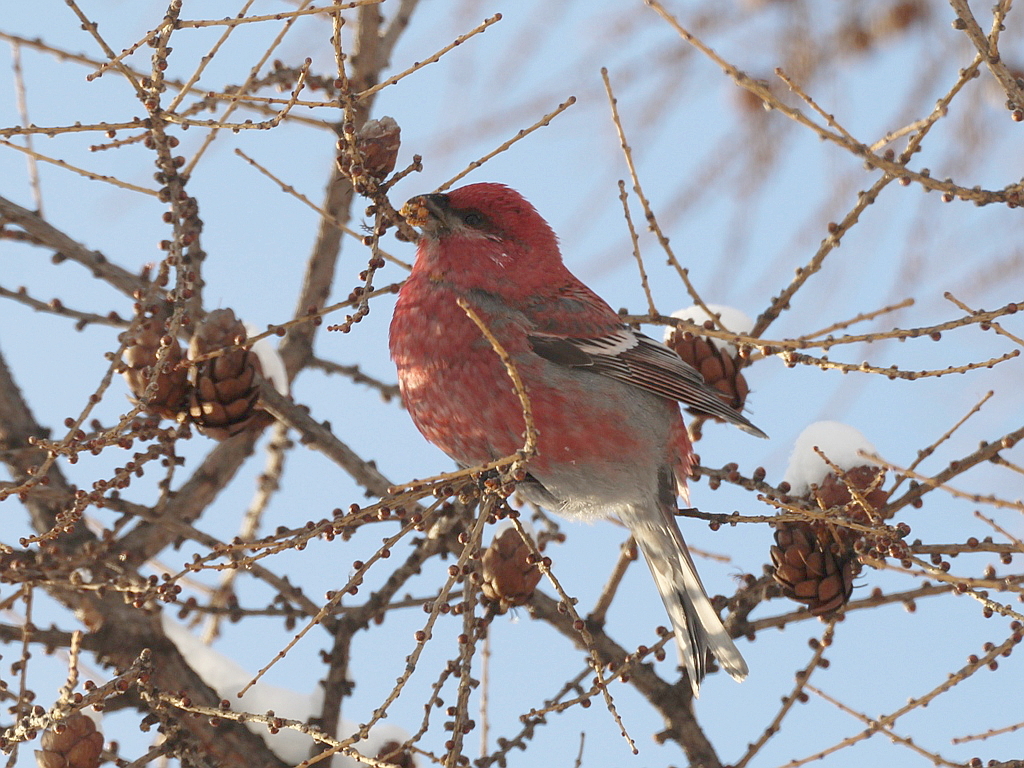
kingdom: Animalia
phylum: Chordata
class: Aves
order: Passeriformes
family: Fringillidae
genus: Pinicola
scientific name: Pinicola enucleator
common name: Pine grosbeak
